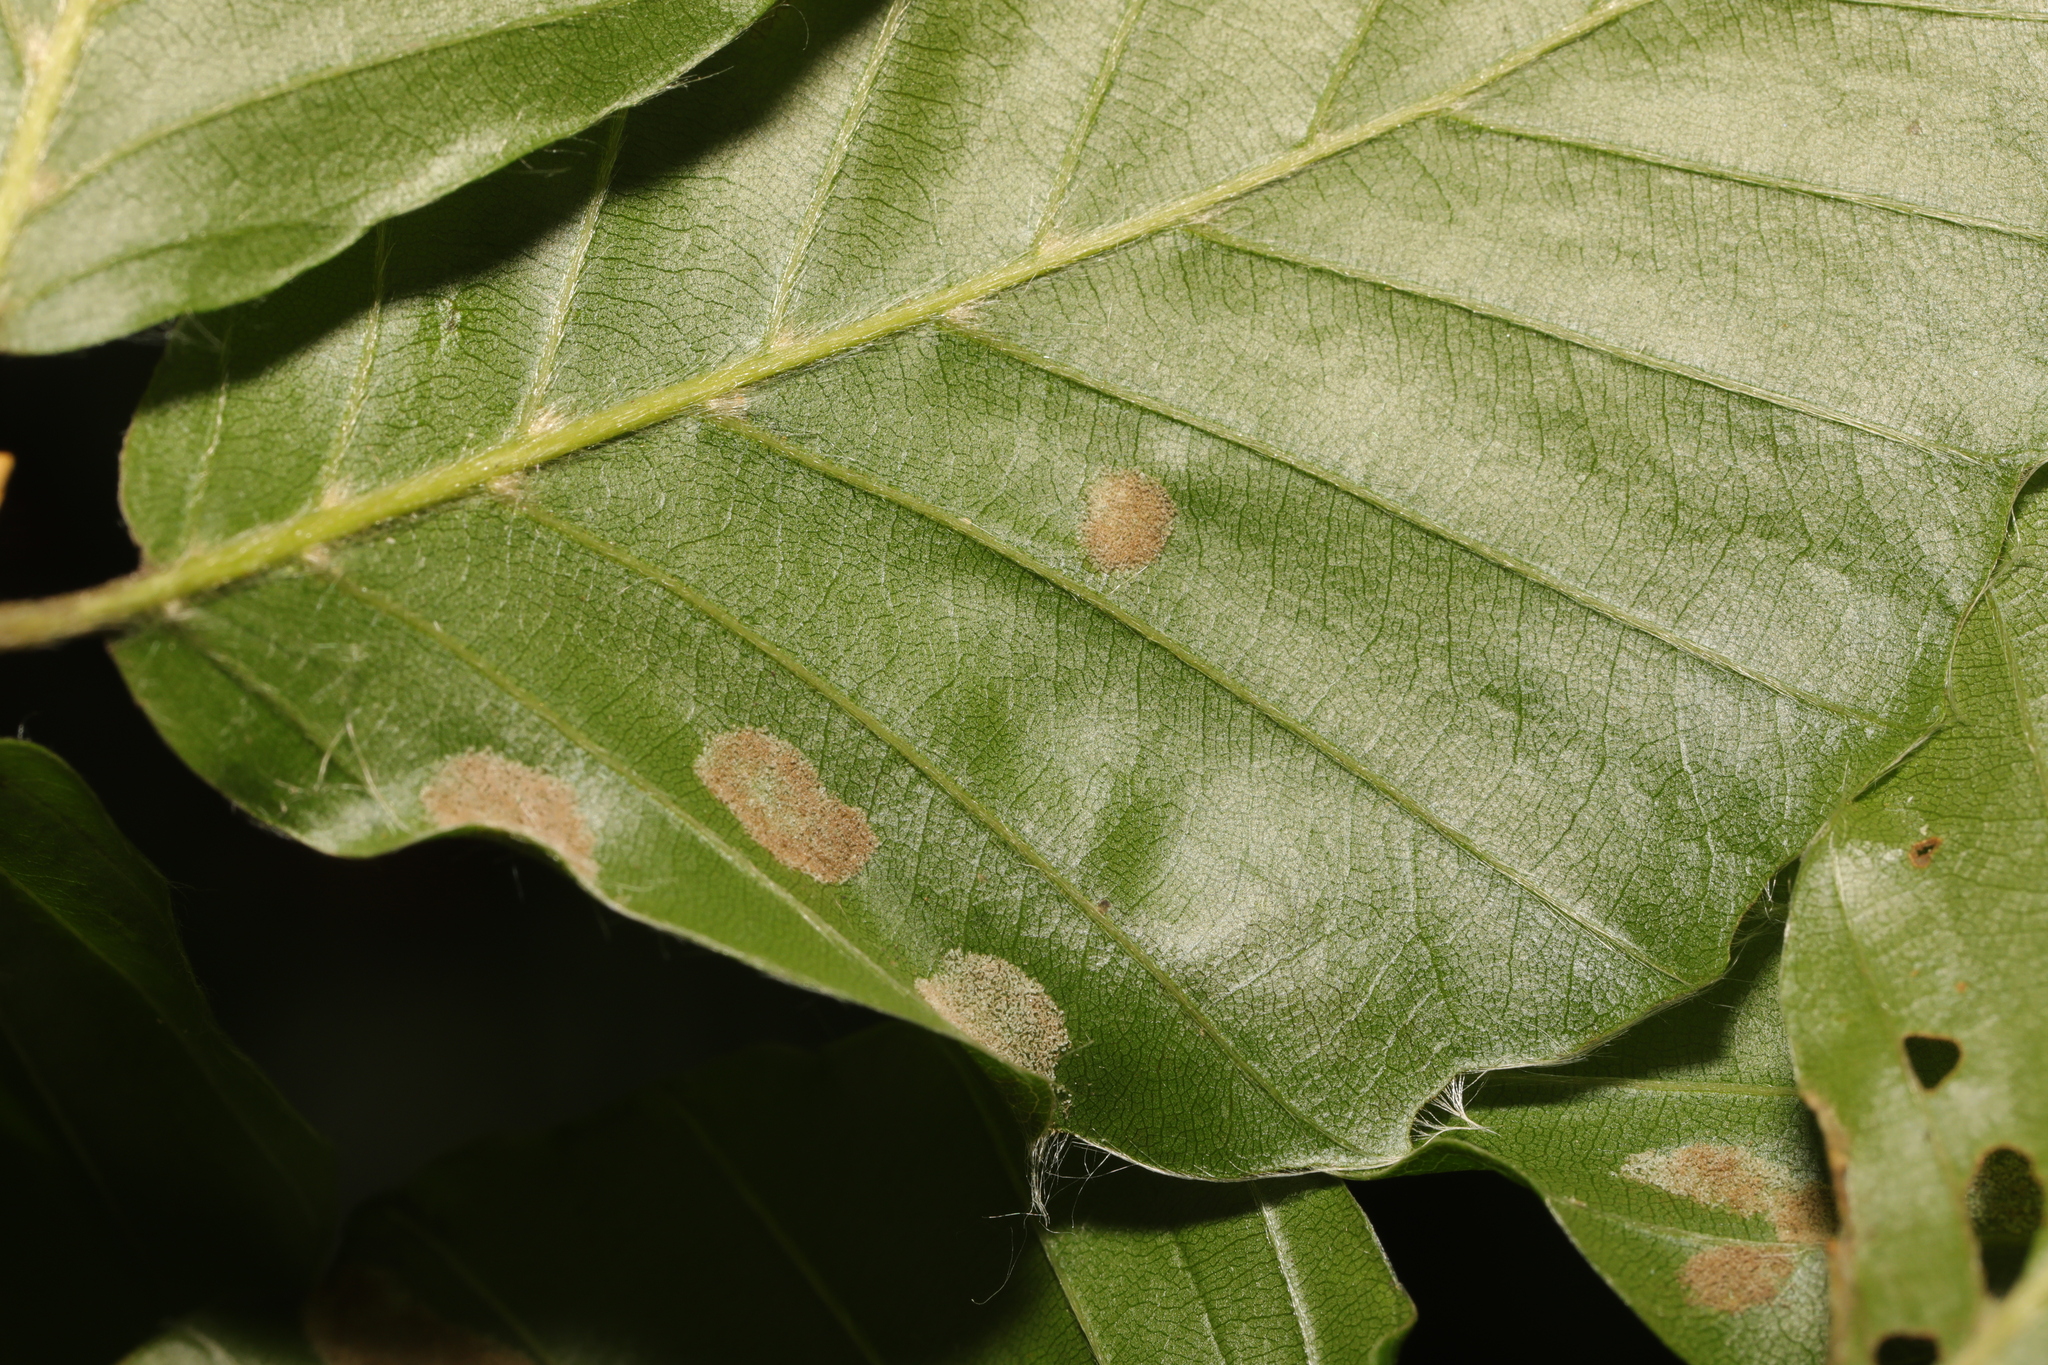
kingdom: Animalia
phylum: Arthropoda
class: Arachnida
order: Trombidiformes
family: Eriophyidae
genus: Aceria
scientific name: Aceria nervisequa
